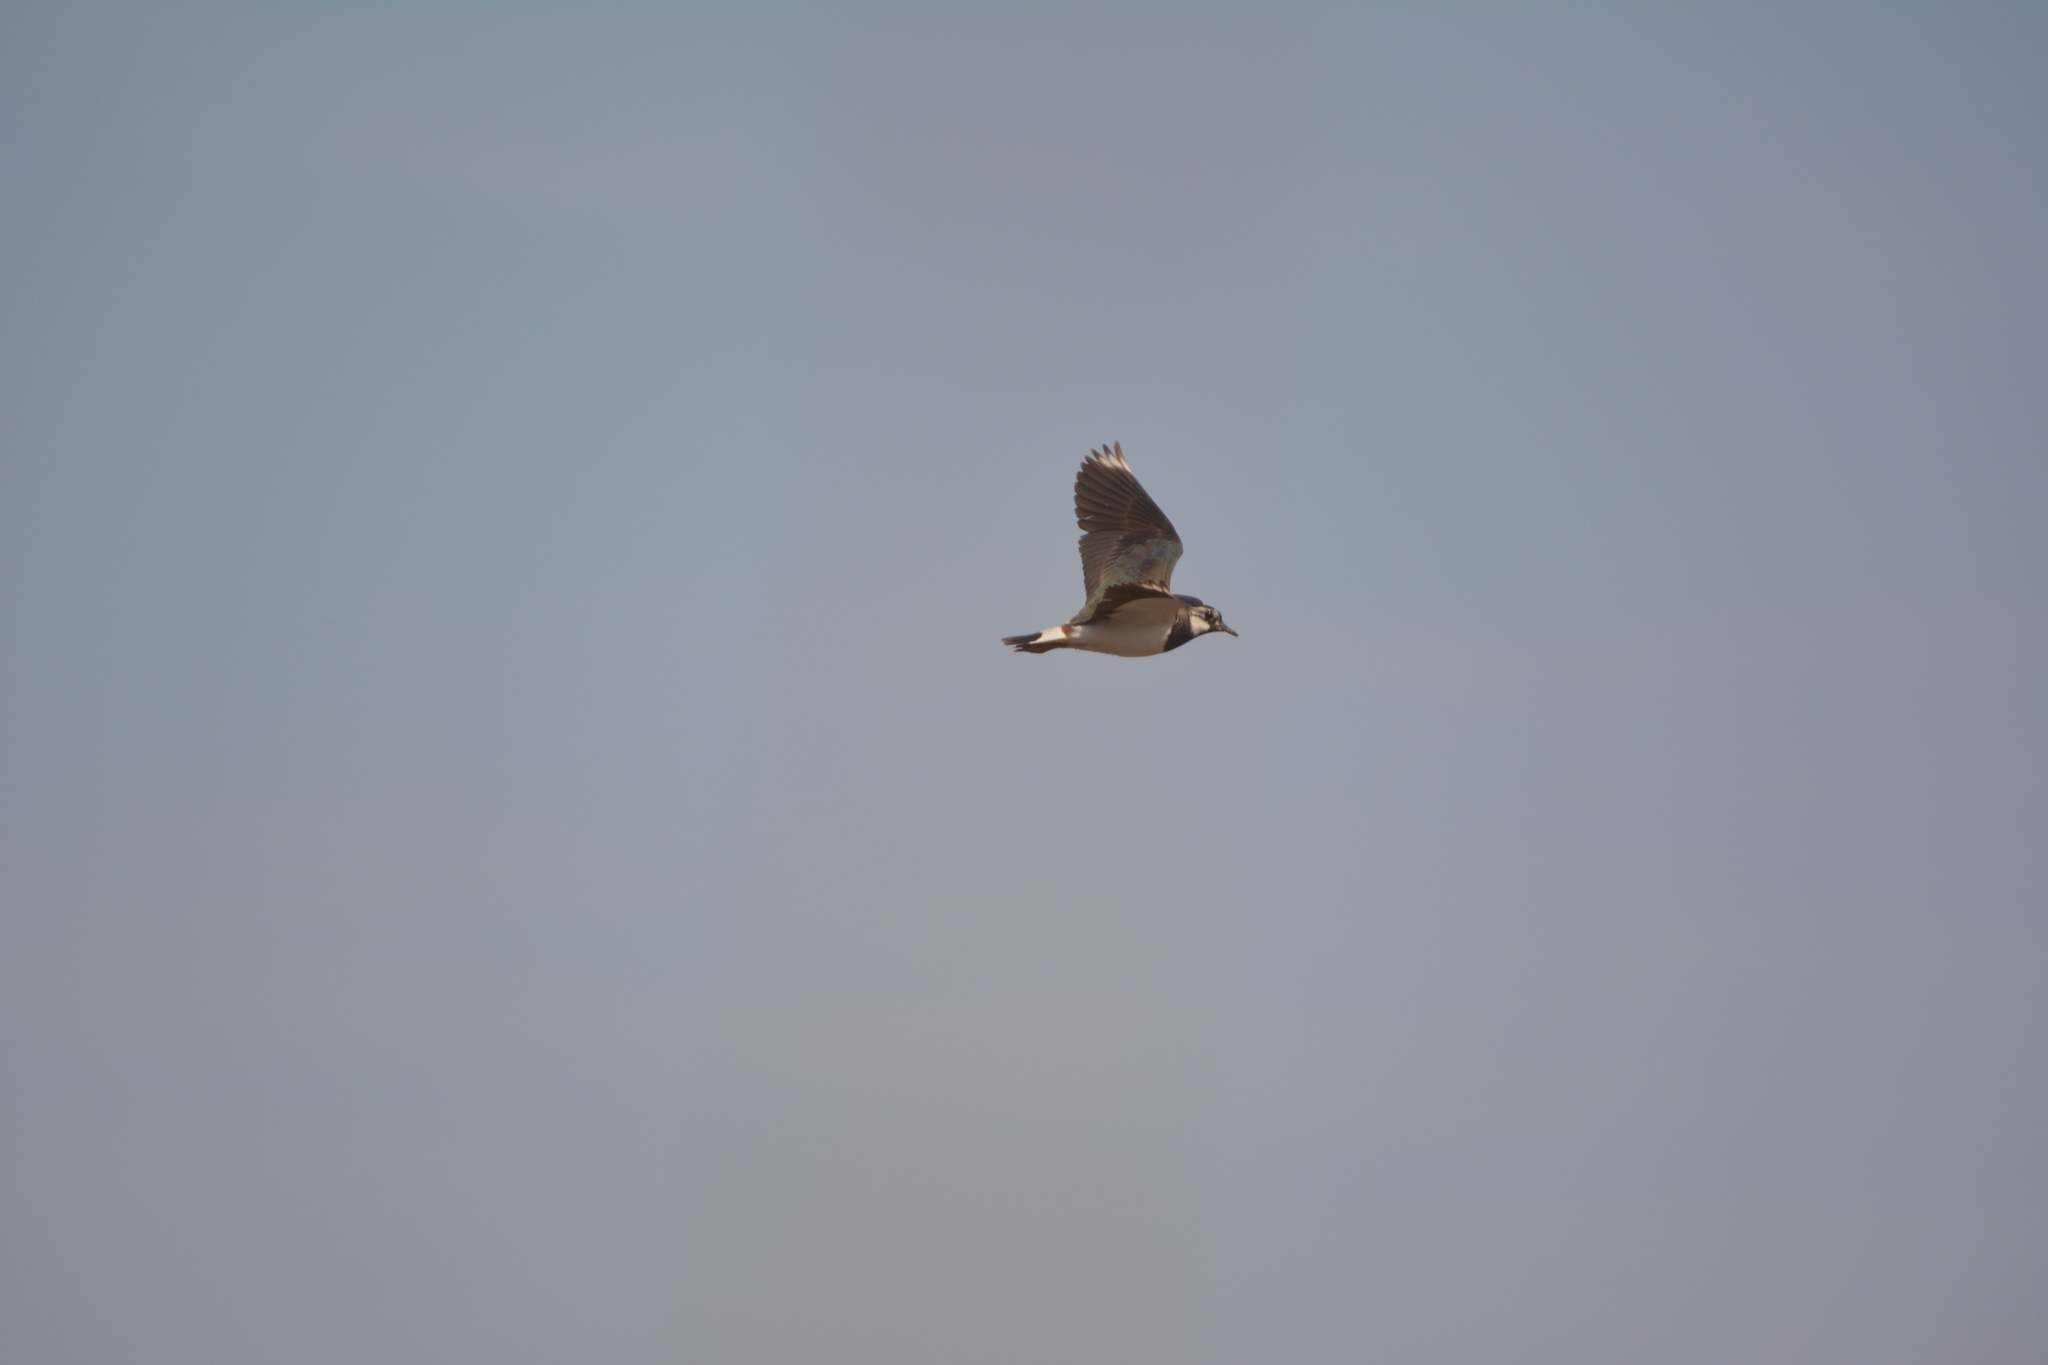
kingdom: Animalia
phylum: Chordata
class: Aves
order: Charadriiformes
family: Charadriidae
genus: Vanellus
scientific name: Vanellus vanellus
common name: Northern lapwing
